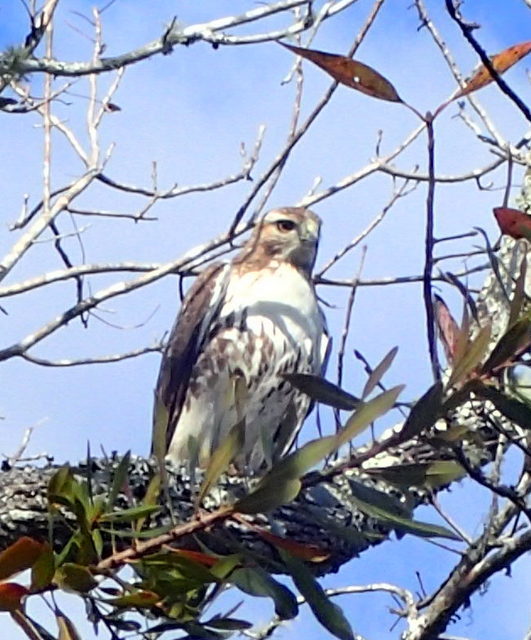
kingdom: Animalia
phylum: Chordata
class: Aves
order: Accipitriformes
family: Accipitridae
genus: Buteo
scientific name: Buteo jamaicensis
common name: Red-tailed hawk
